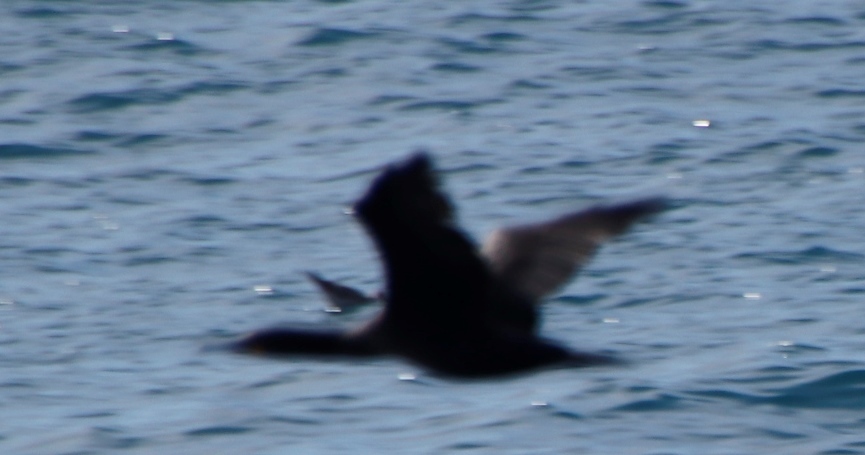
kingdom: Animalia
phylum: Chordata
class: Aves
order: Suliformes
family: Phalacrocoracidae
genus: Phalacrocorax
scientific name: Phalacrocorax capensis
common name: Cape cormorant
